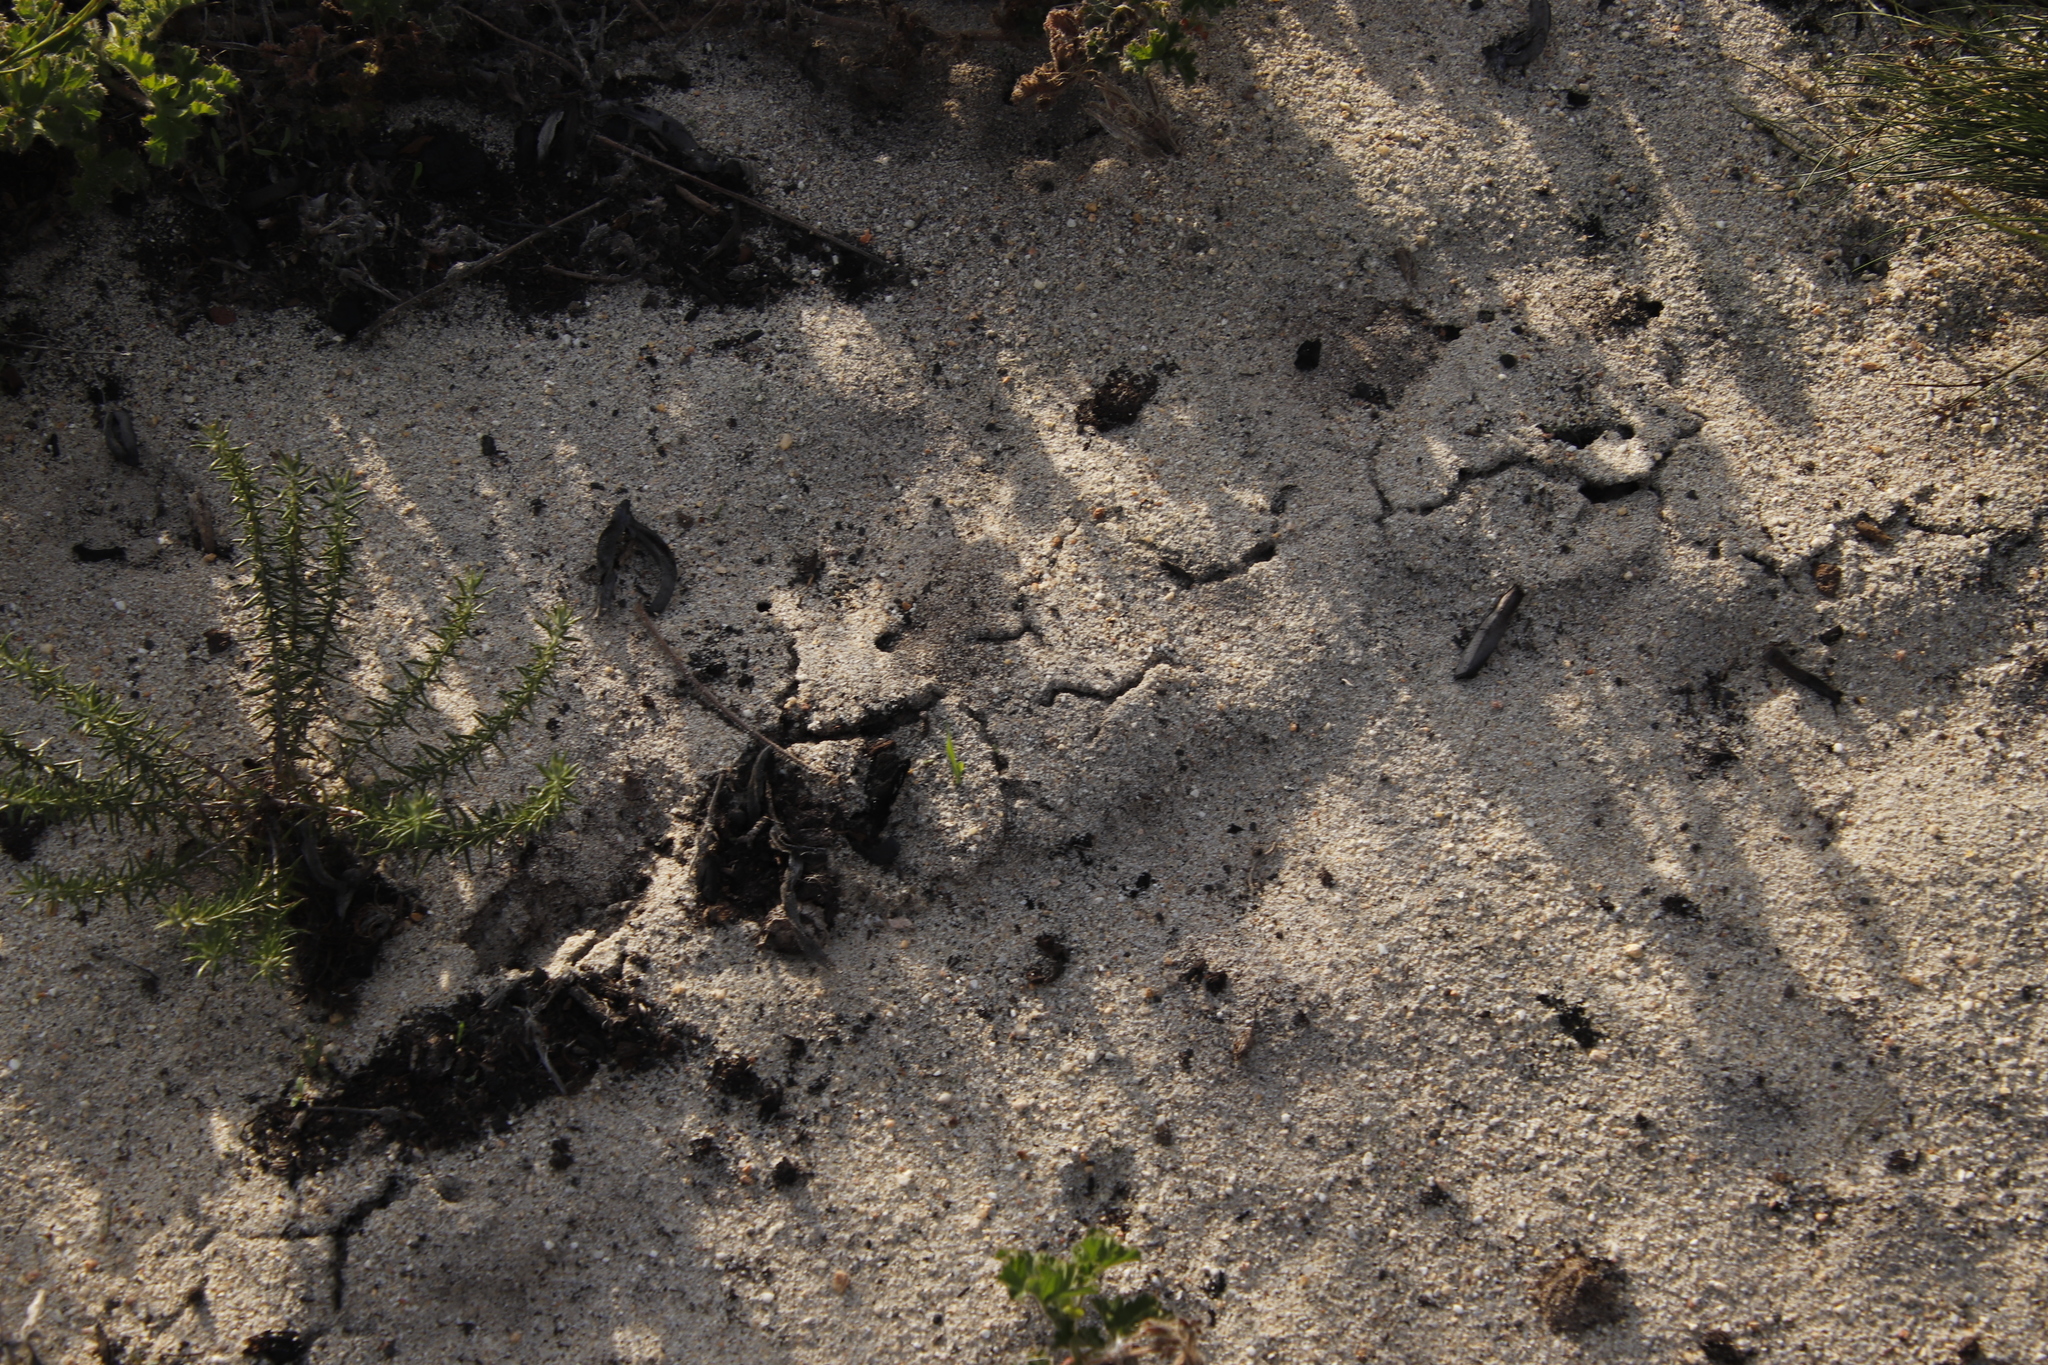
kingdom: Animalia
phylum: Chordata
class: Mammalia
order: Afrosoricida
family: Chrysochloridae
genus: Chrysochloris
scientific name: Chrysochloris asiatica
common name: Cape golden mole
